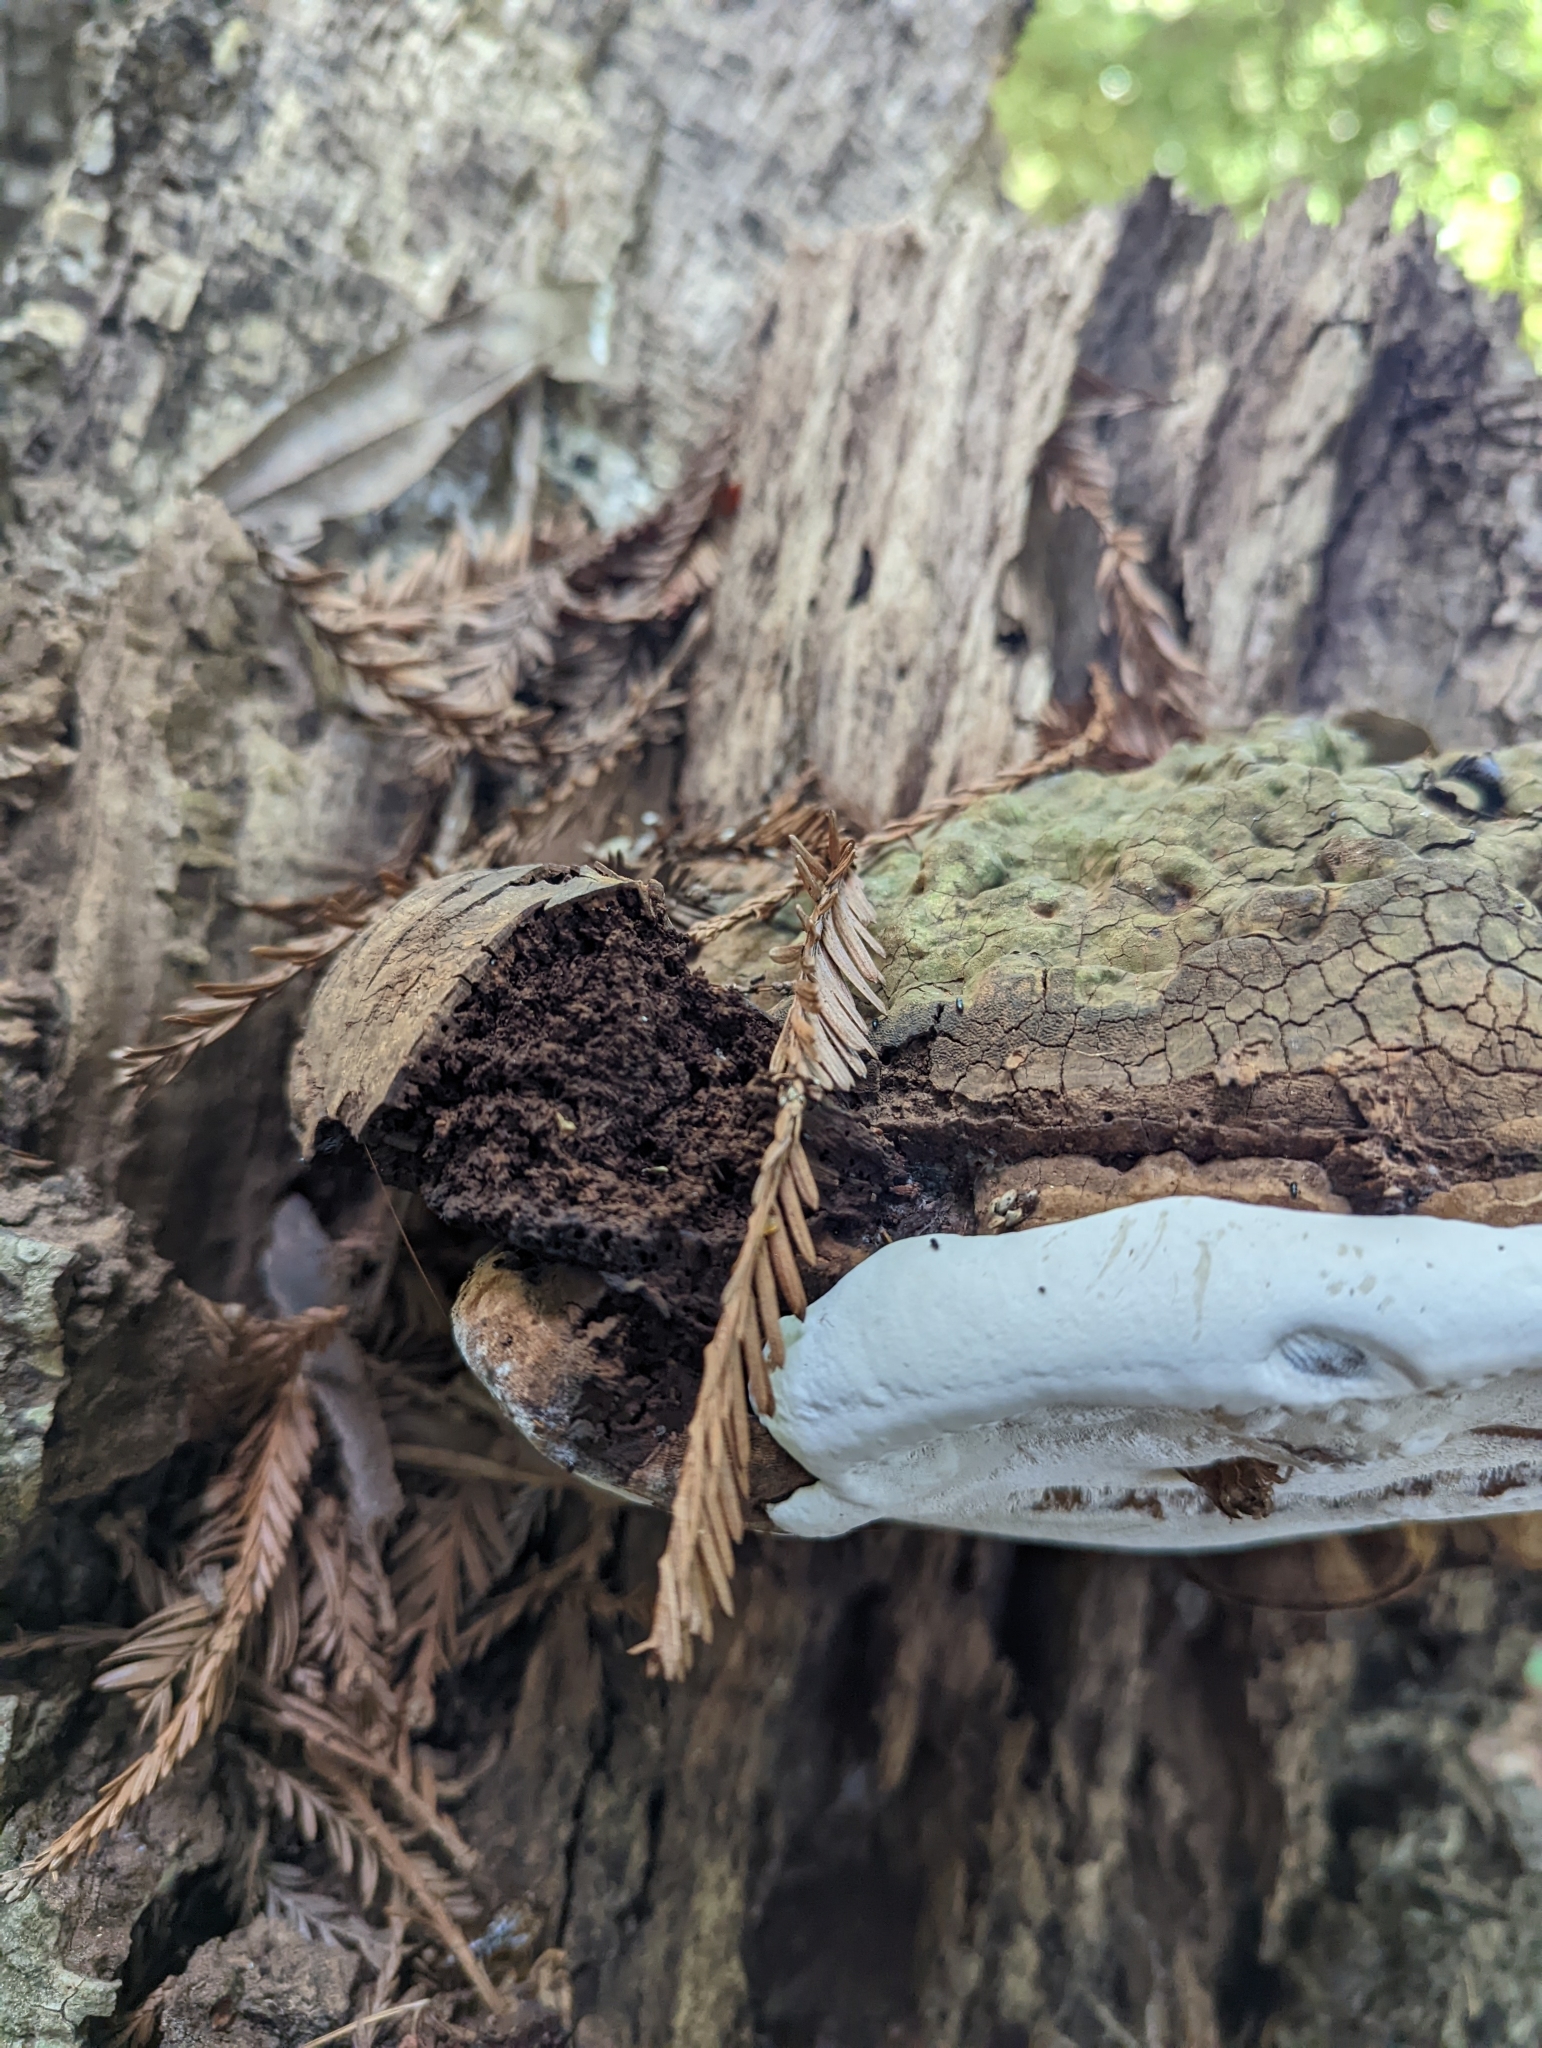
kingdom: Fungi
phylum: Basidiomycota
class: Agaricomycetes
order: Polyporales
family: Polyporaceae
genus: Ganoderma
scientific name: Ganoderma brownii
